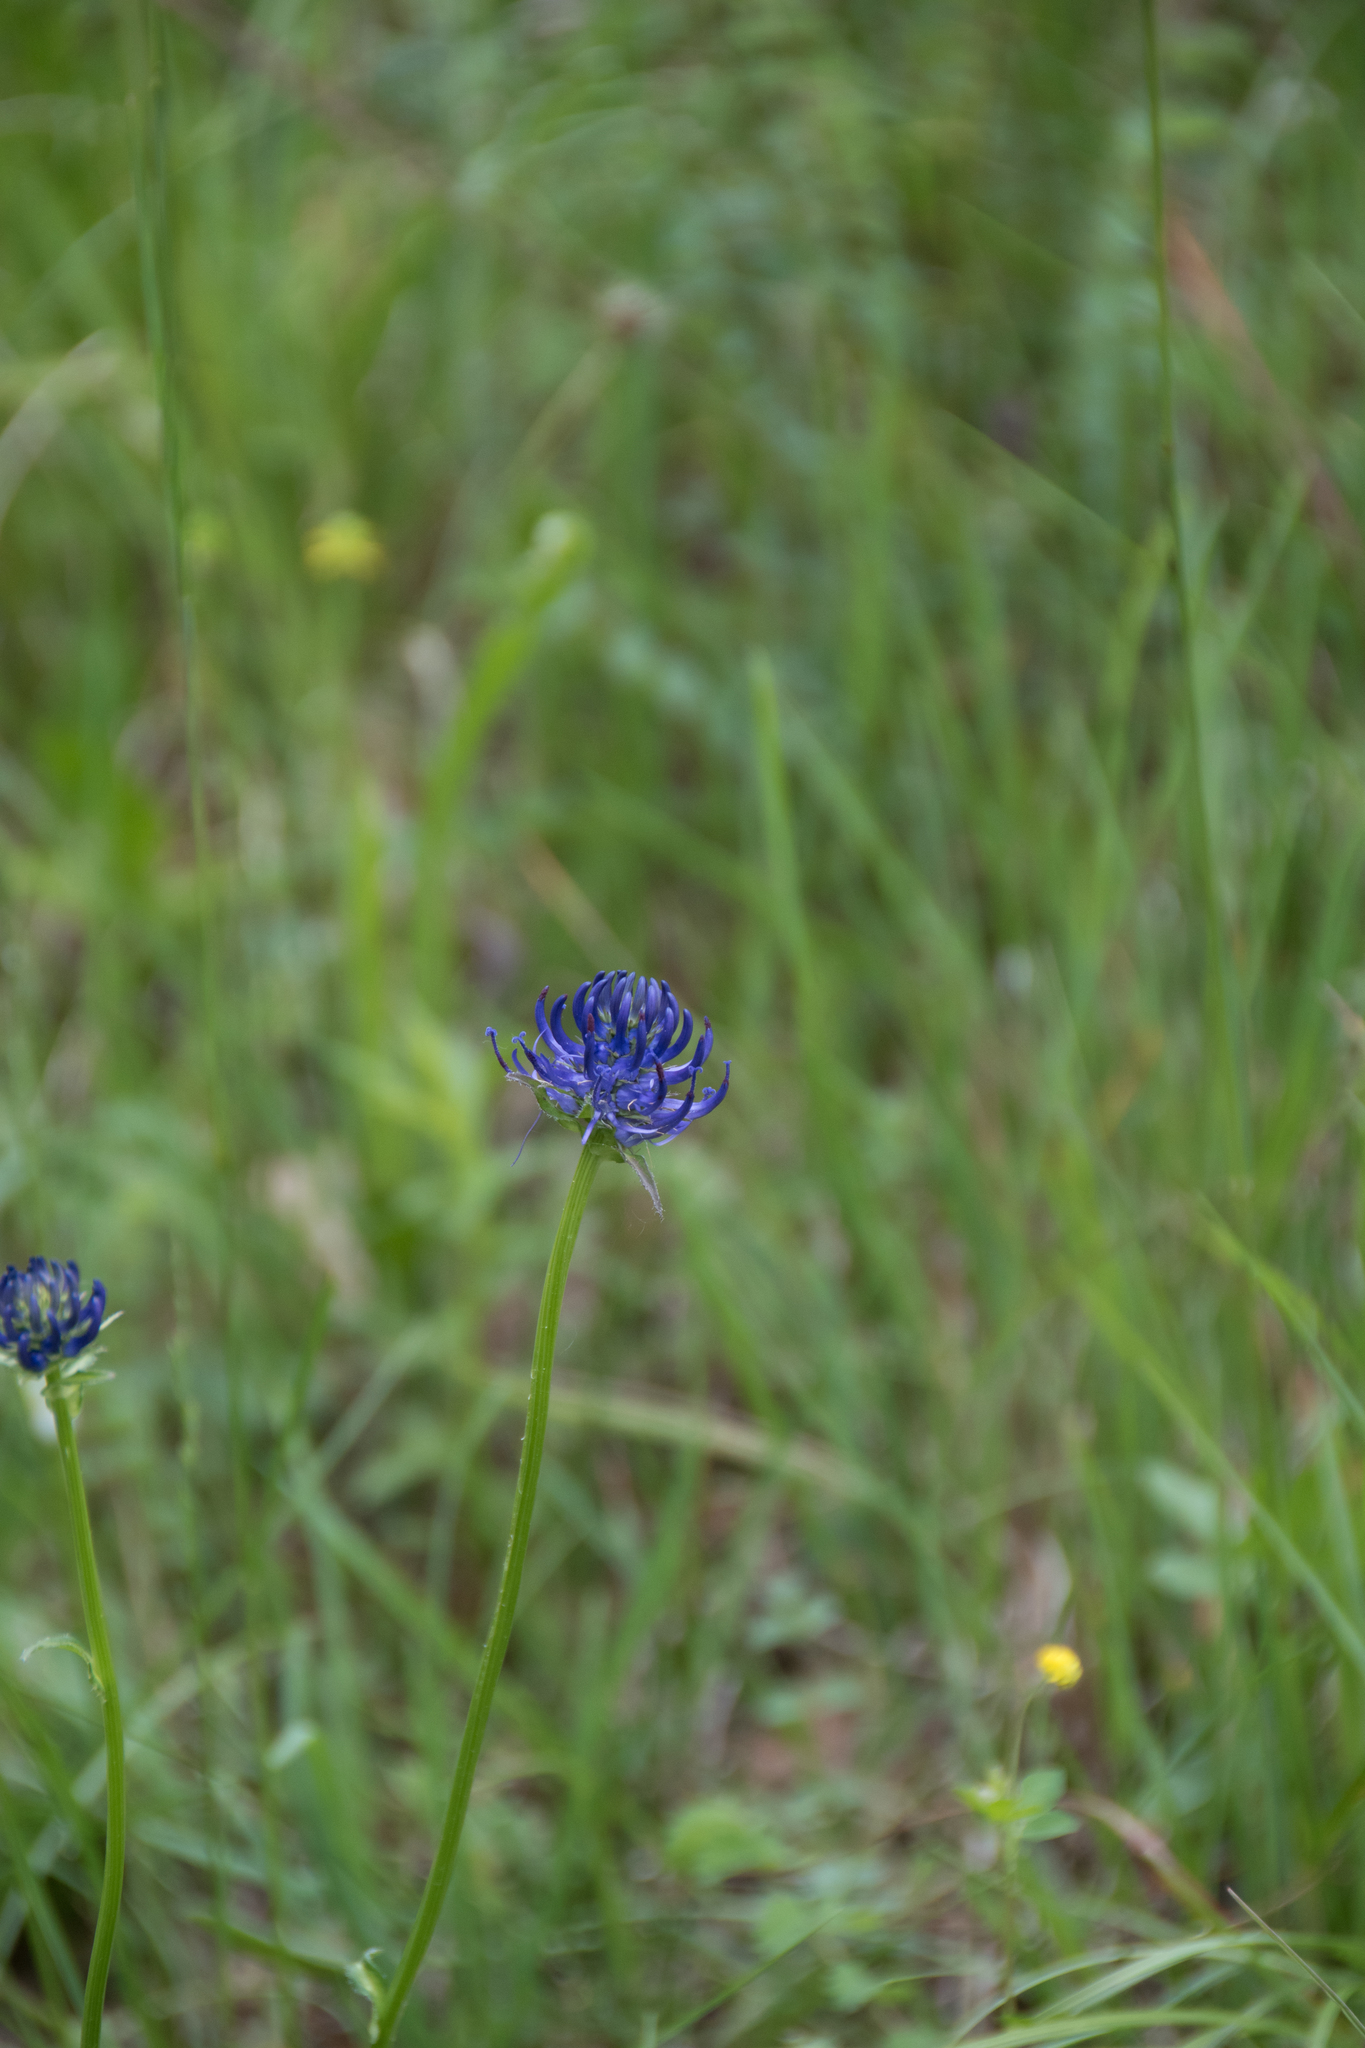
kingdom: Plantae
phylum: Tracheophyta
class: Magnoliopsida
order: Asterales
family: Campanulaceae
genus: Phyteuma
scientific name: Phyteuma orbiculare
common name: Round-headed rampion
